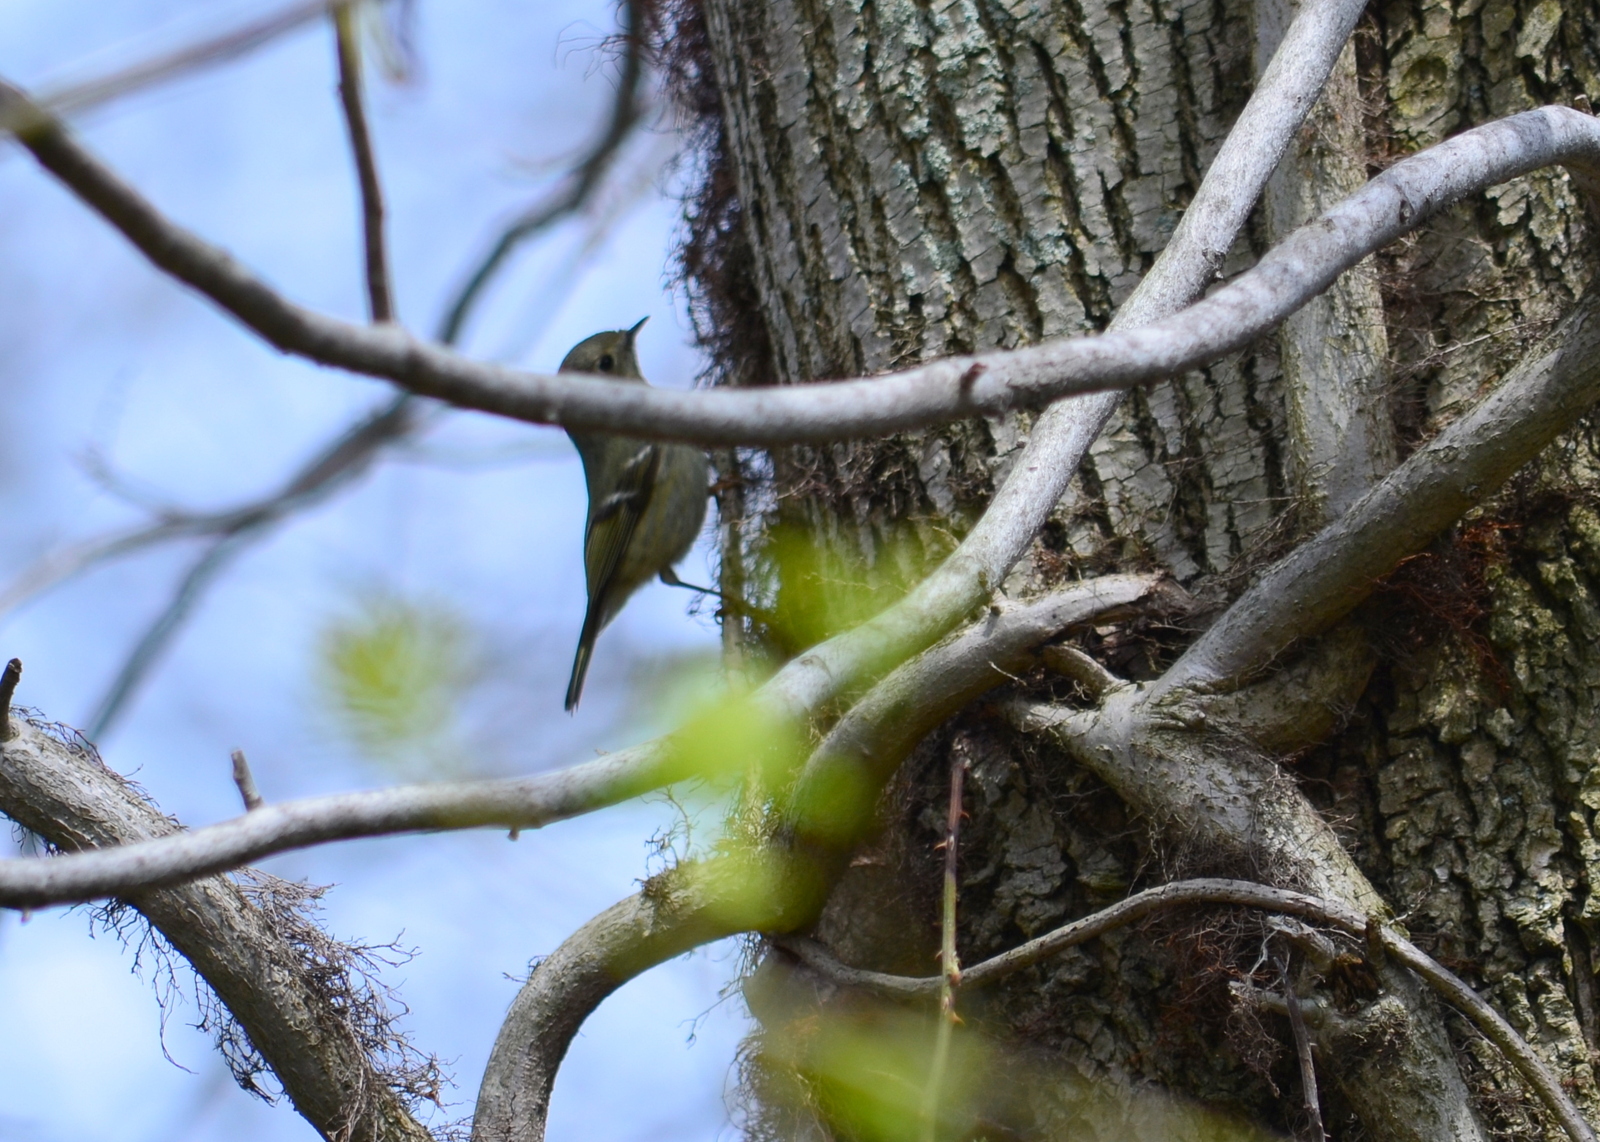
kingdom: Animalia
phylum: Chordata
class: Aves
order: Passeriformes
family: Regulidae
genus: Regulus
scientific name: Regulus calendula
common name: Ruby-crowned kinglet
